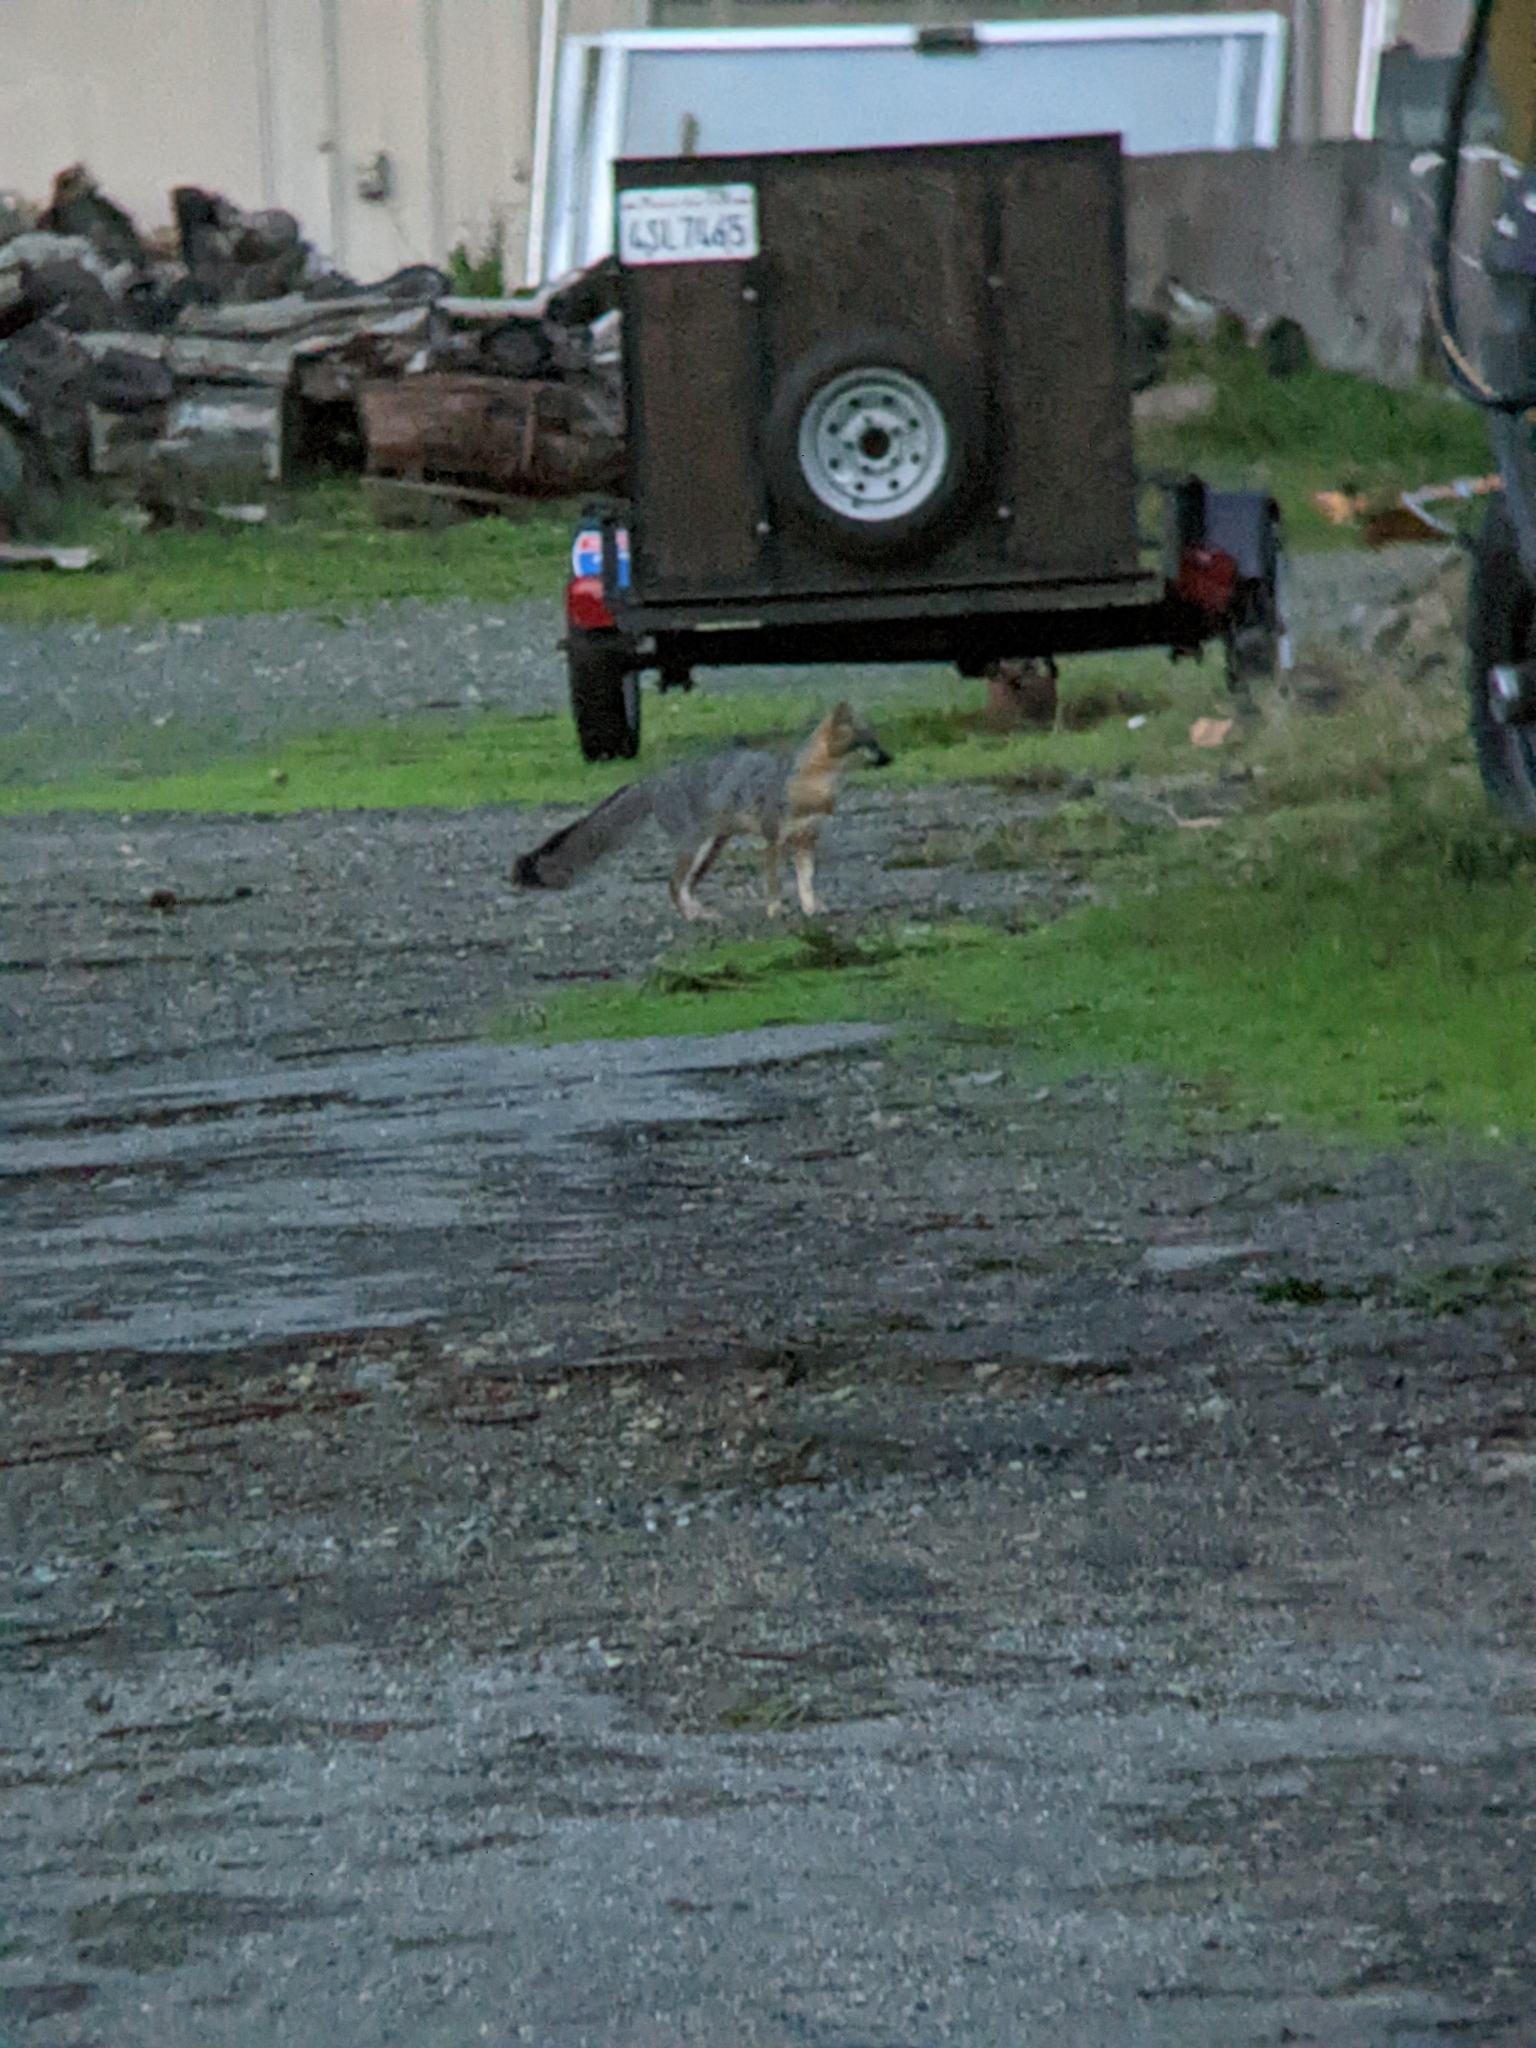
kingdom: Animalia
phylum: Chordata
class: Mammalia
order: Carnivora
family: Canidae
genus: Urocyon
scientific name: Urocyon cinereoargenteus
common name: Gray fox
